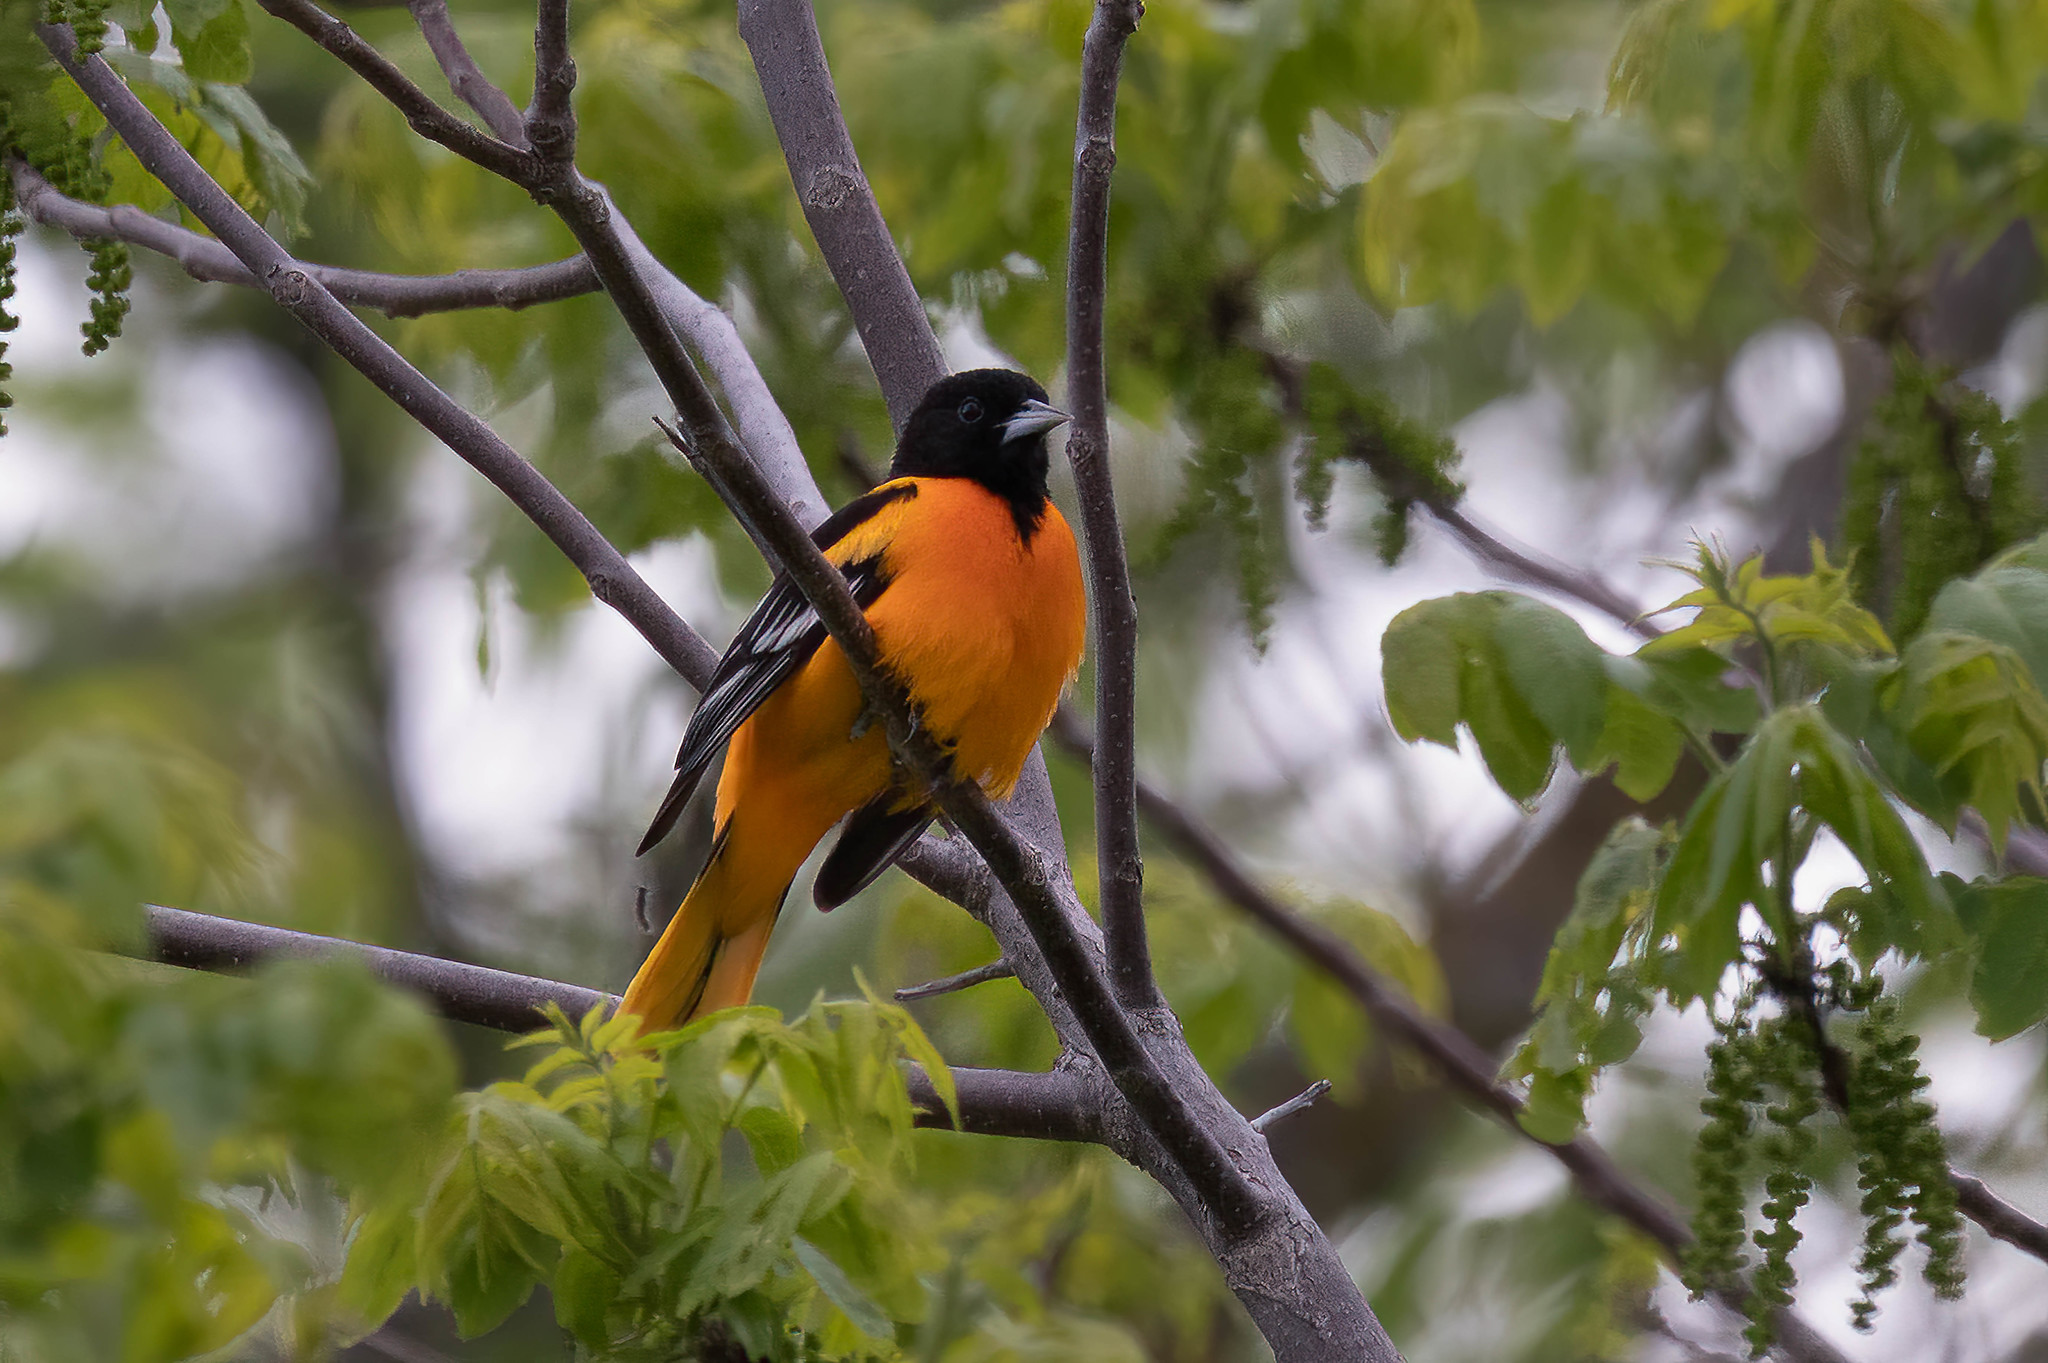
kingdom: Animalia
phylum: Chordata
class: Aves
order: Passeriformes
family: Icteridae
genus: Icterus
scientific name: Icterus galbula
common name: Baltimore oriole
